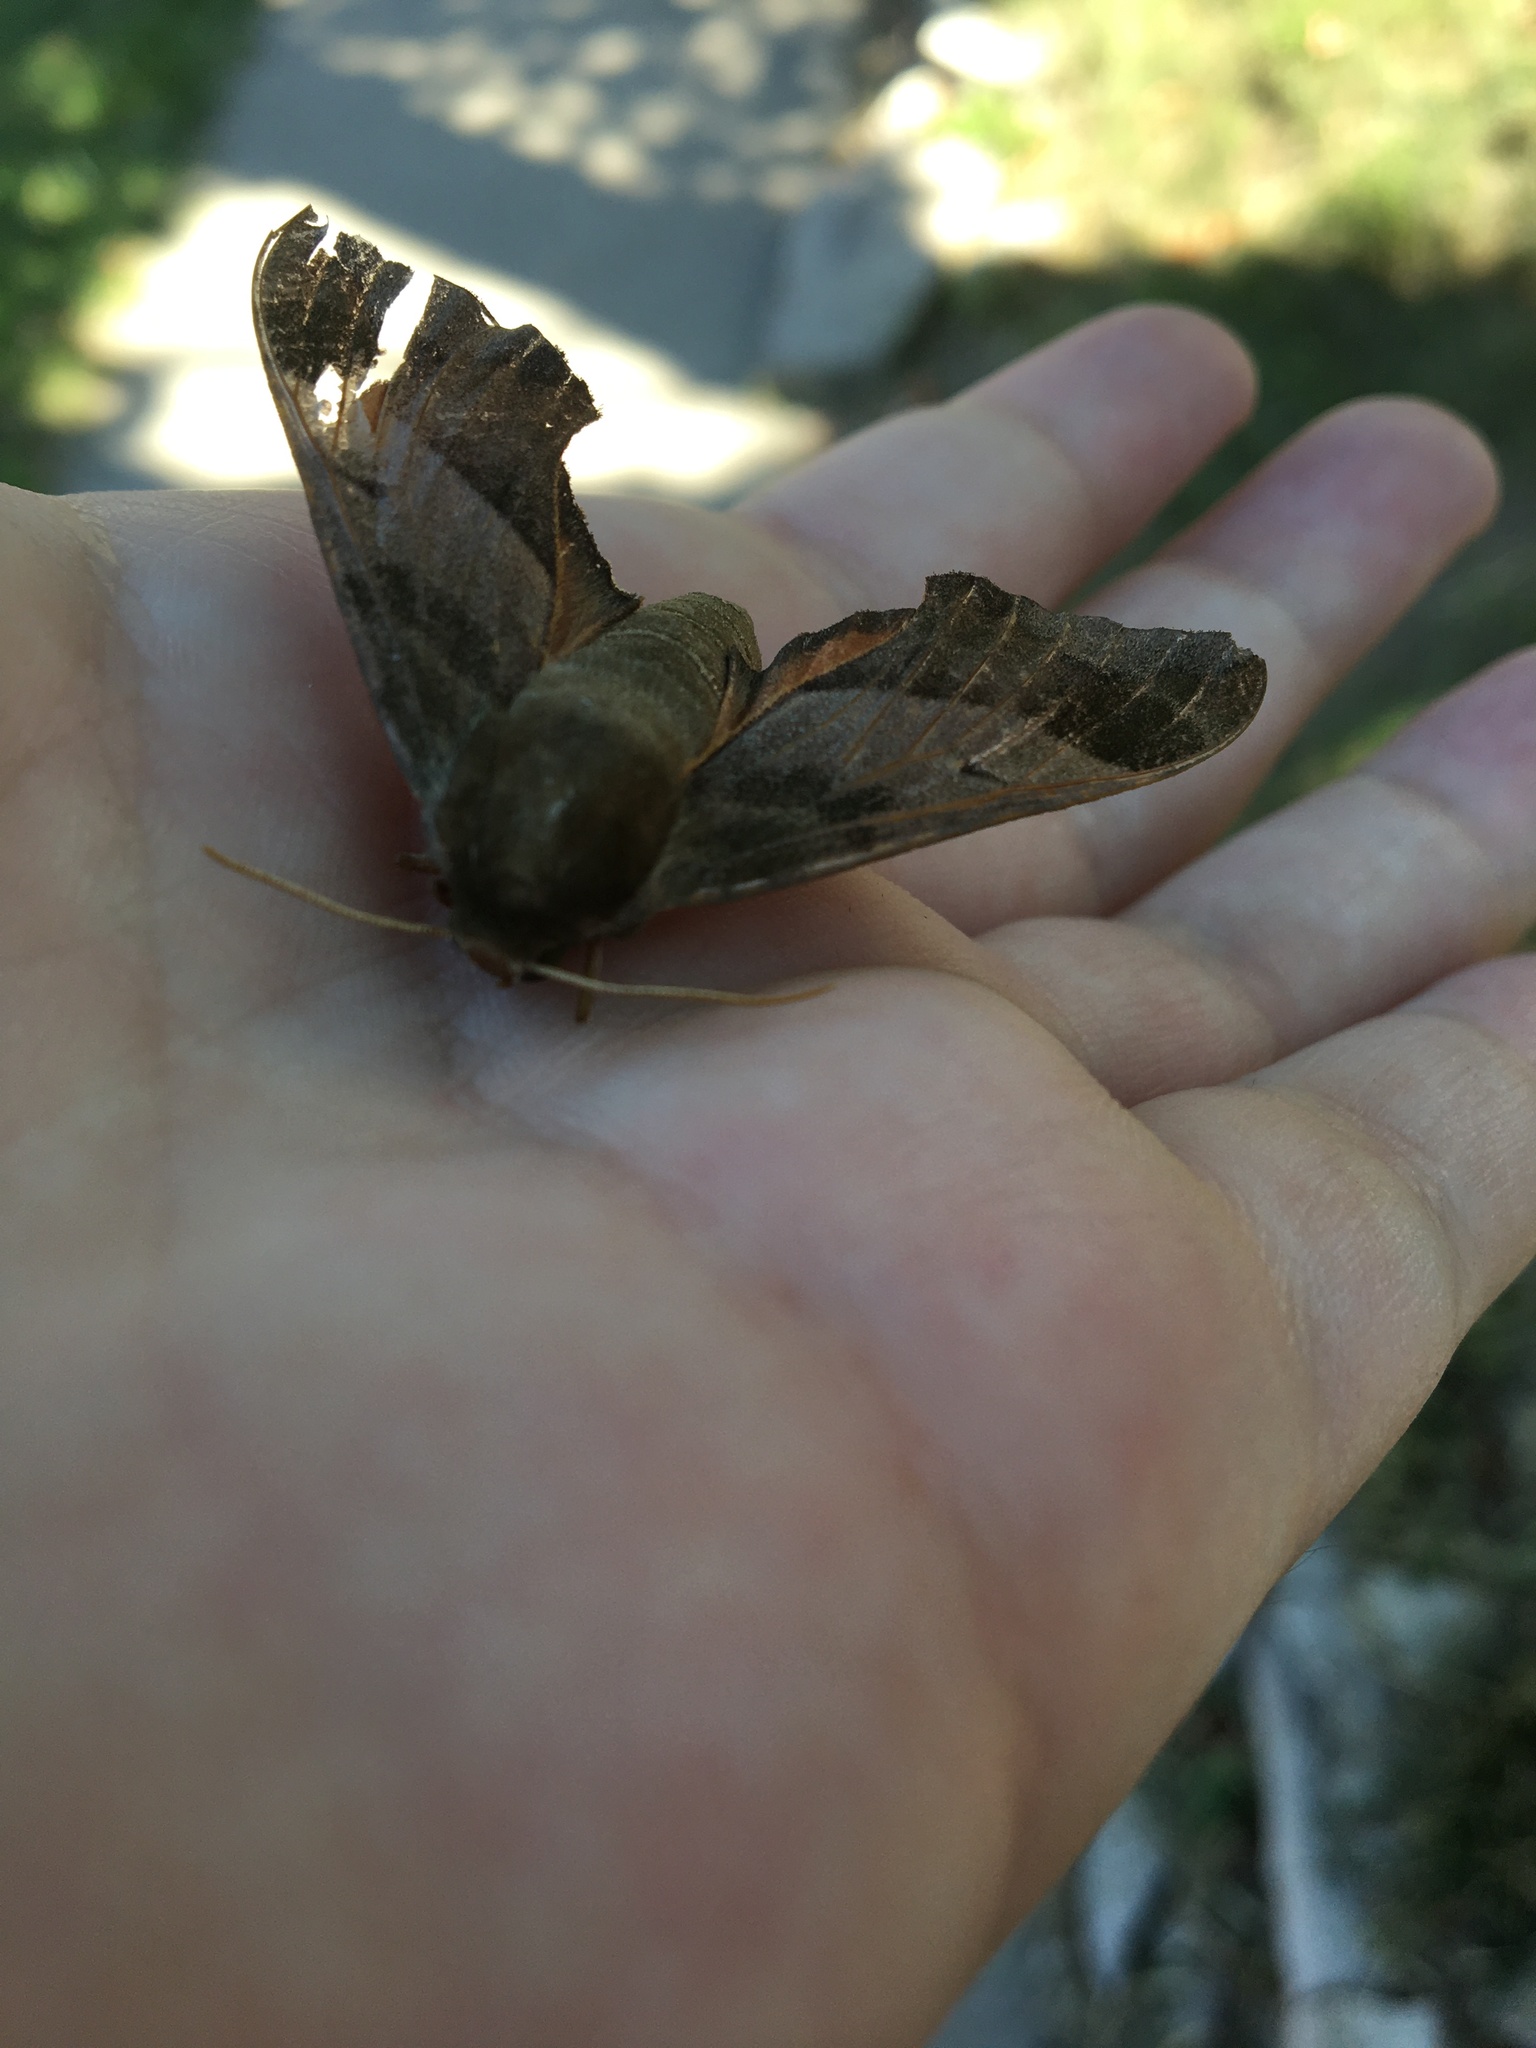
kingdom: Animalia
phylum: Arthropoda
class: Insecta
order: Lepidoptera
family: Sphingidae
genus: Darapsa
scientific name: Darapsa myron
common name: Hog sphinx
